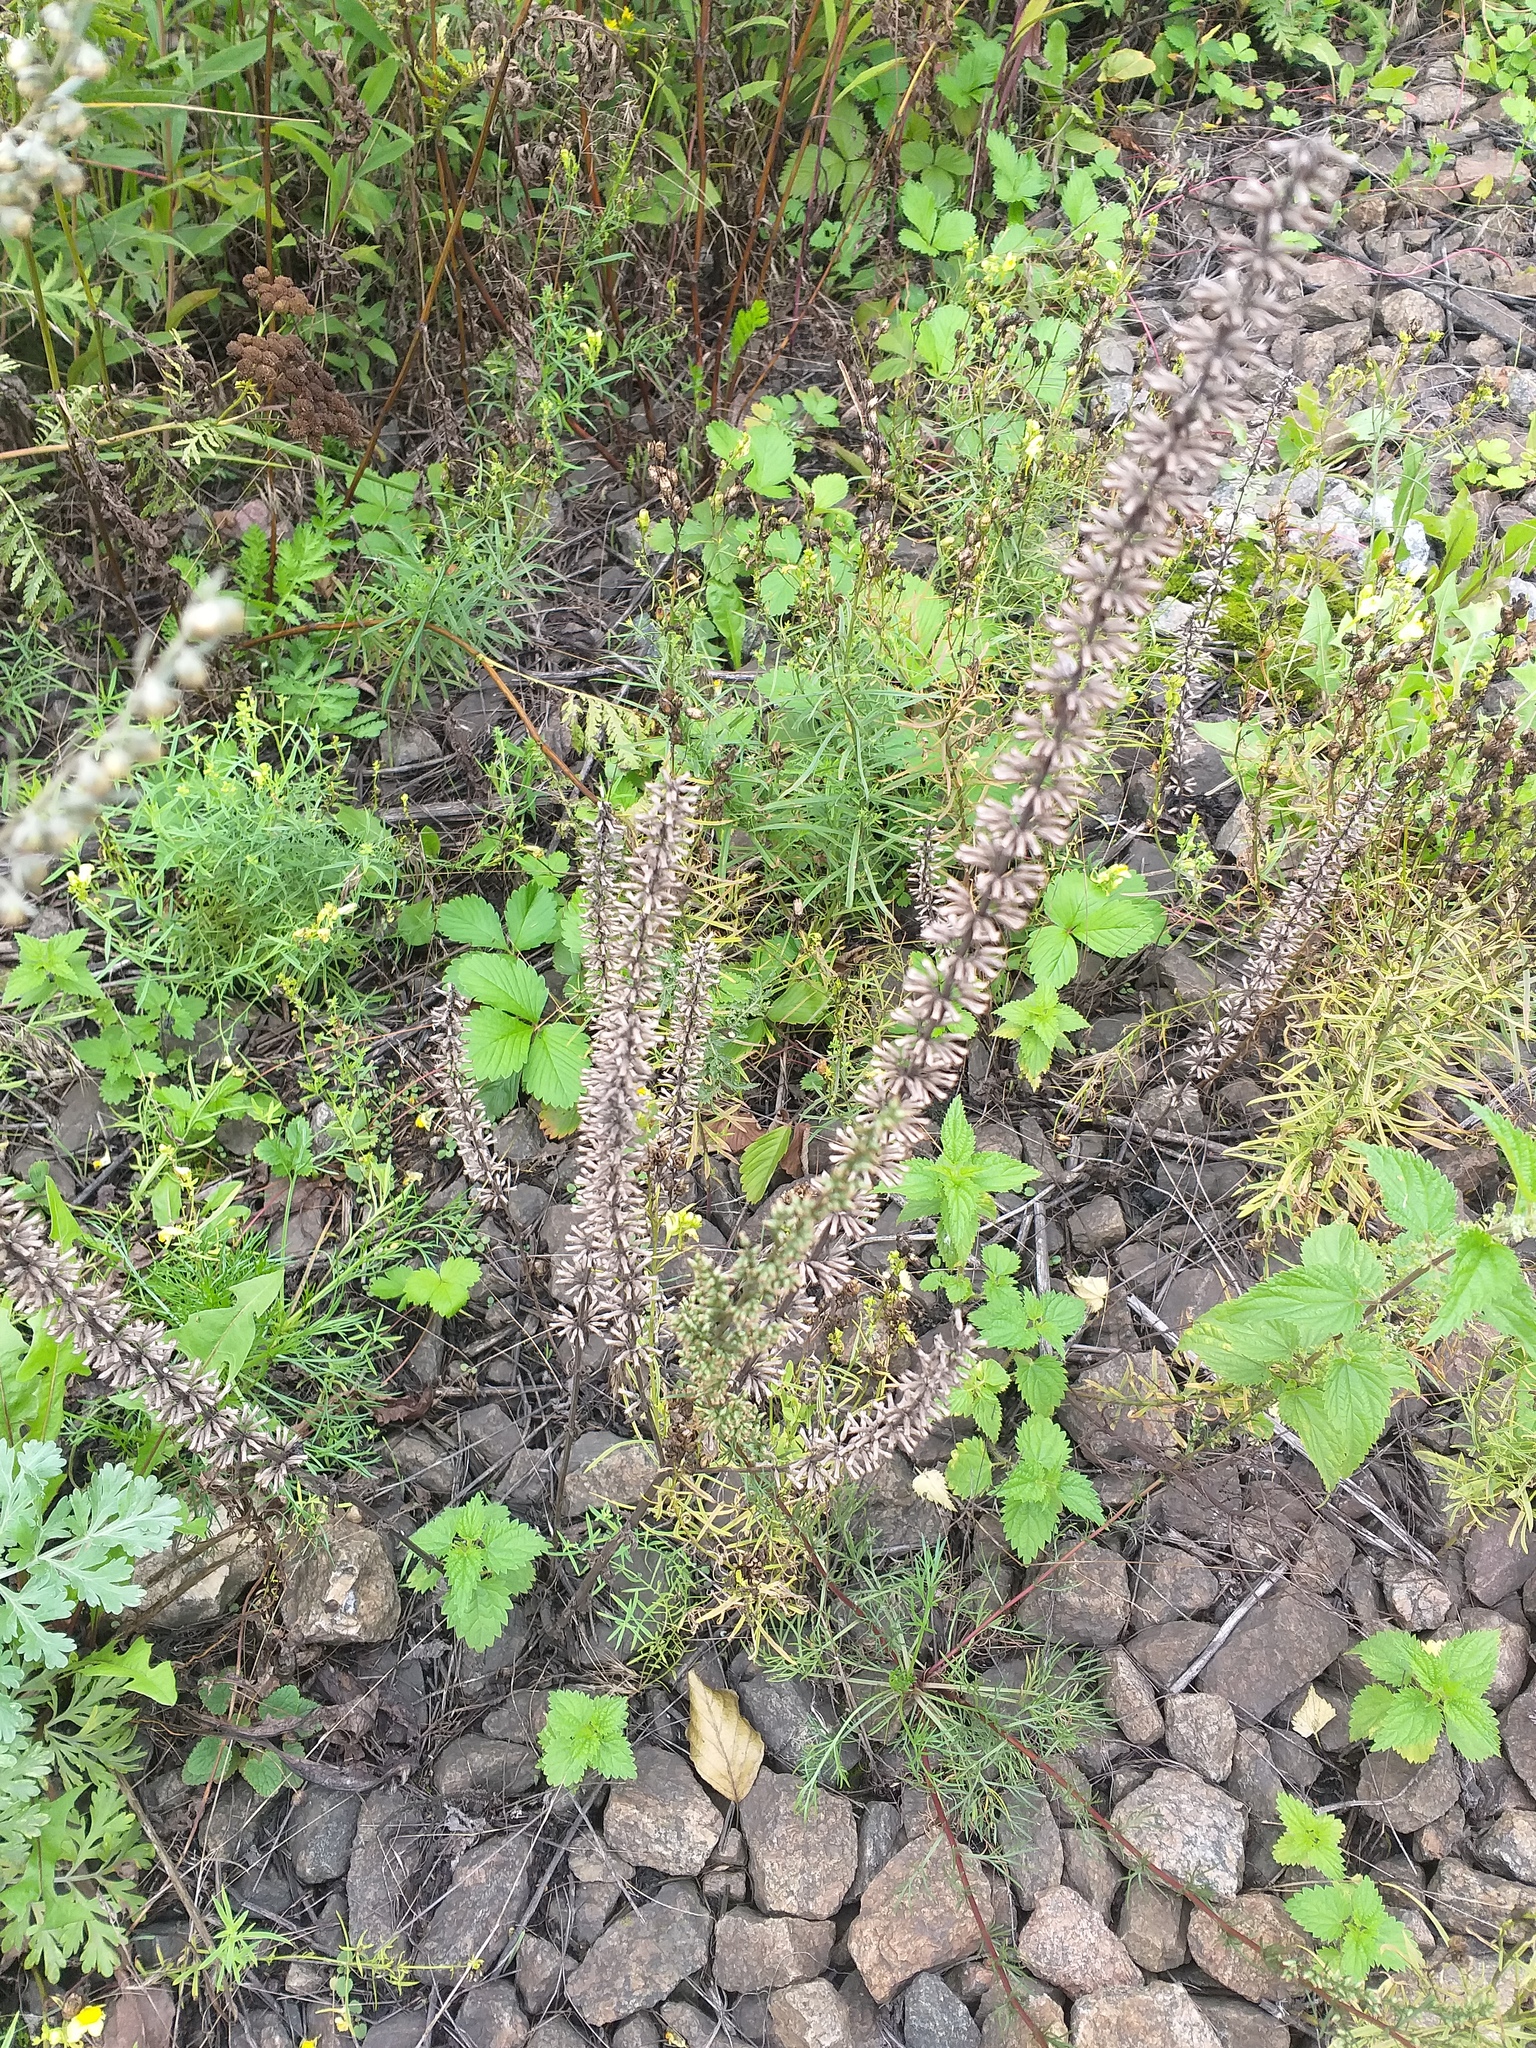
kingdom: Plantae
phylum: Tracheophyta
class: Magnoliopsida
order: Lamiales
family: Lamiaceae
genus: Dracocephalum
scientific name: Dracocephalum thymiflorum
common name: Thymeleaf dragonhead
